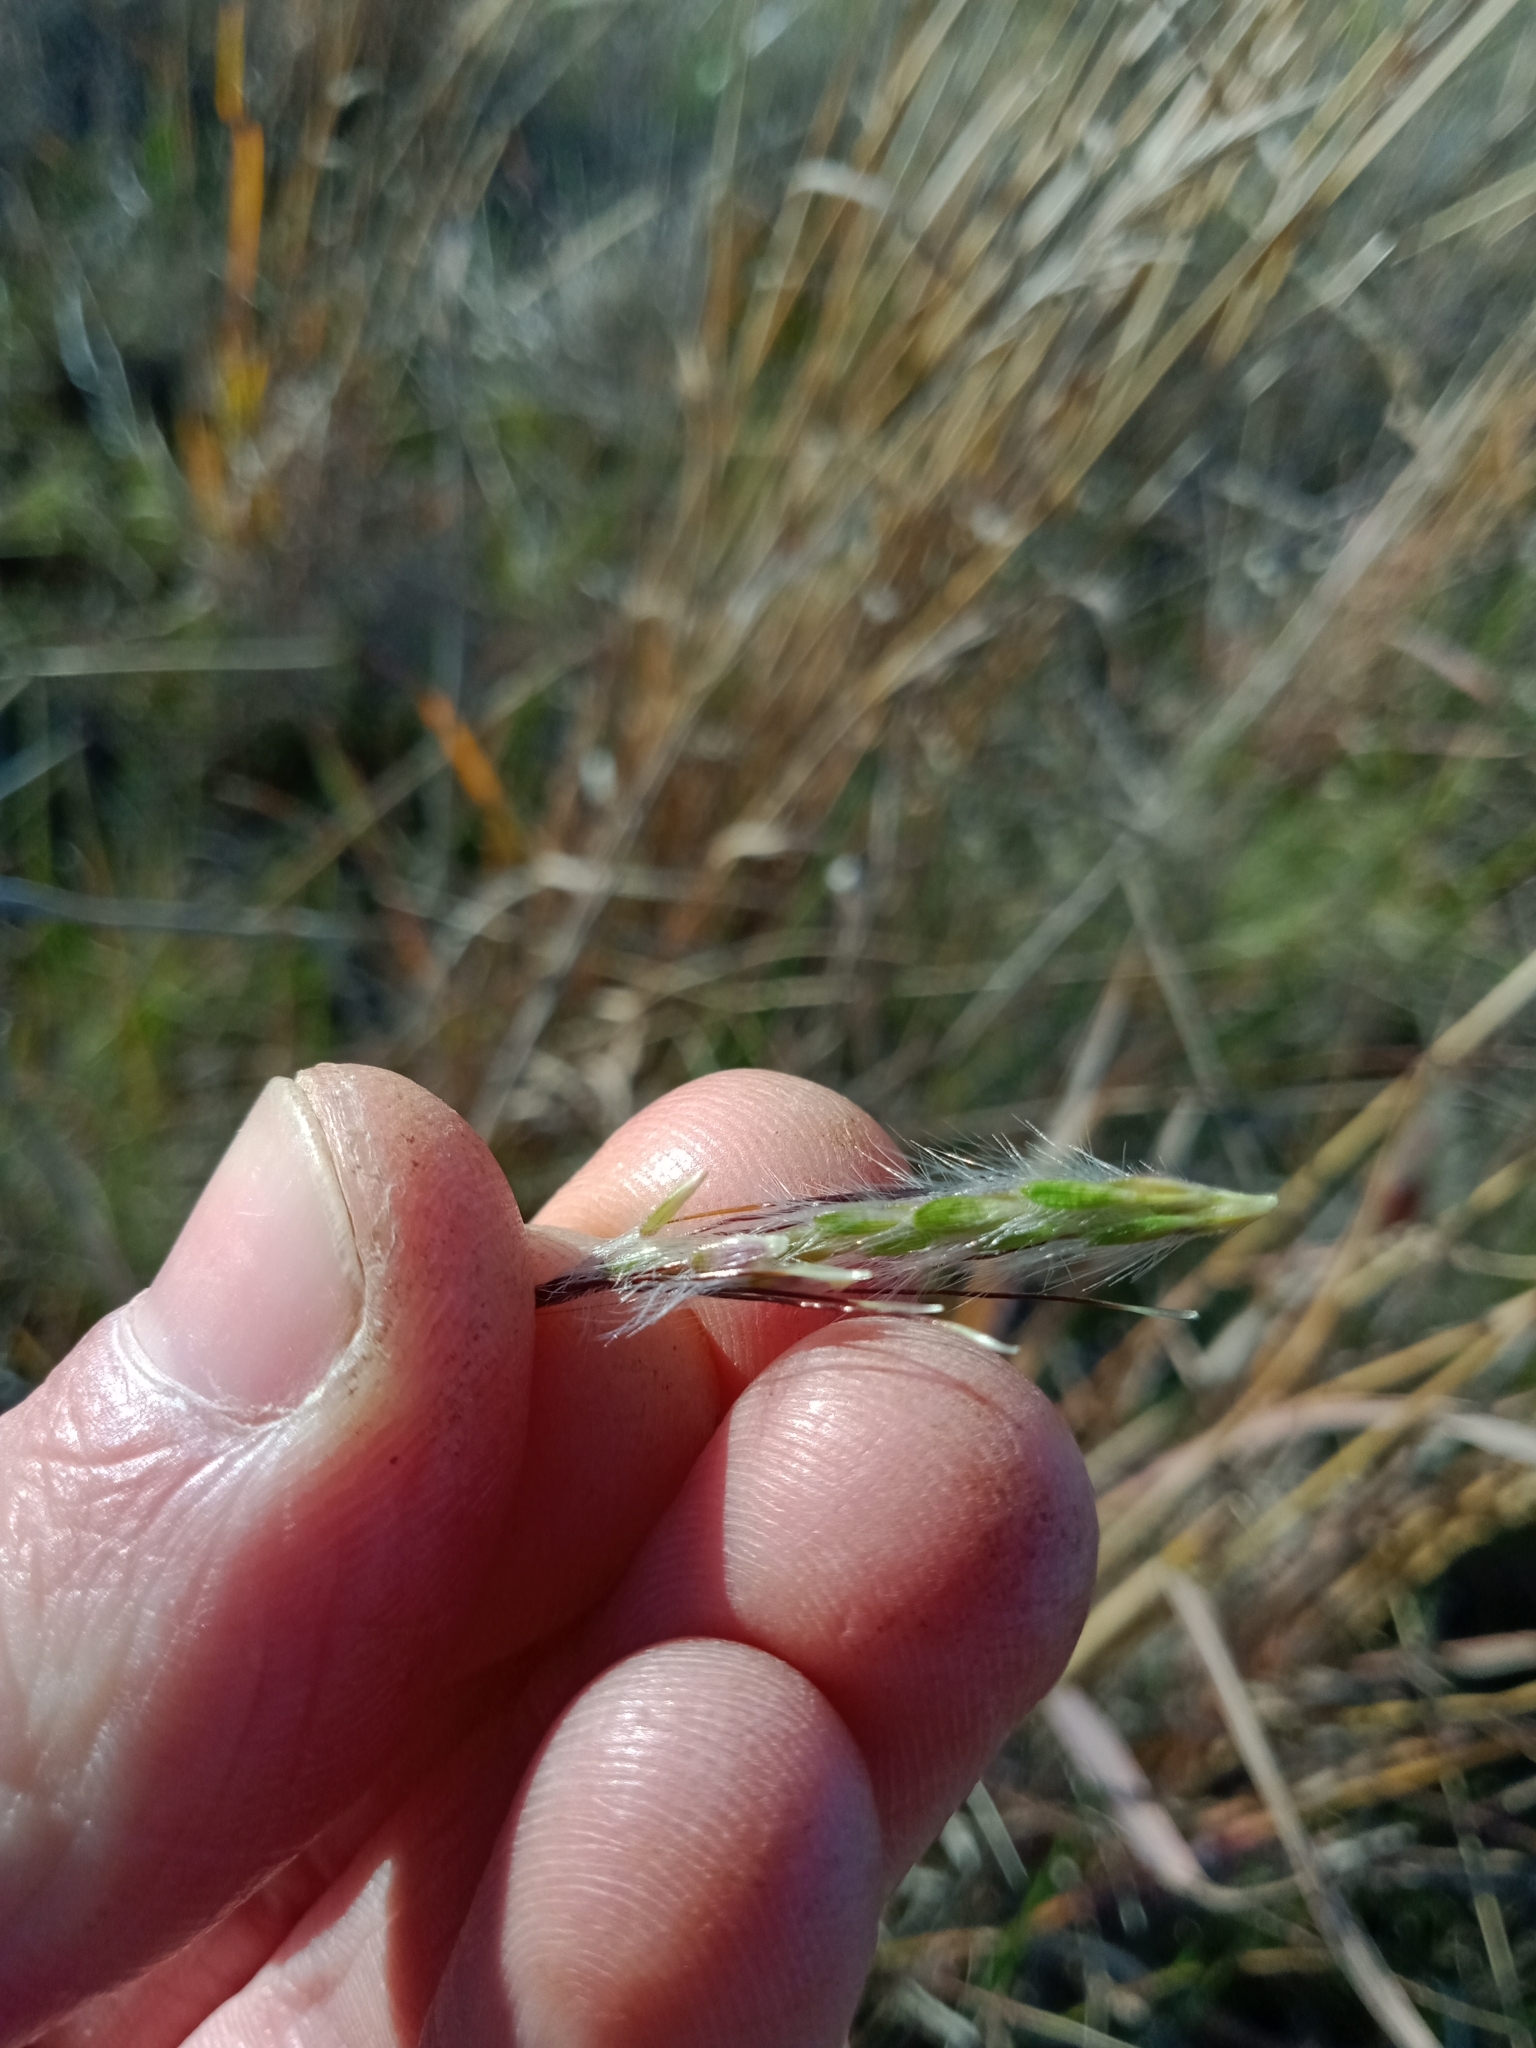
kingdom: Plantae
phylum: Tracheophyta
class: Liliopsida
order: Poales
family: Poaceae
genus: Bothriochloa
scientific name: Bothriochloa macra
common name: Pitted beard grass
